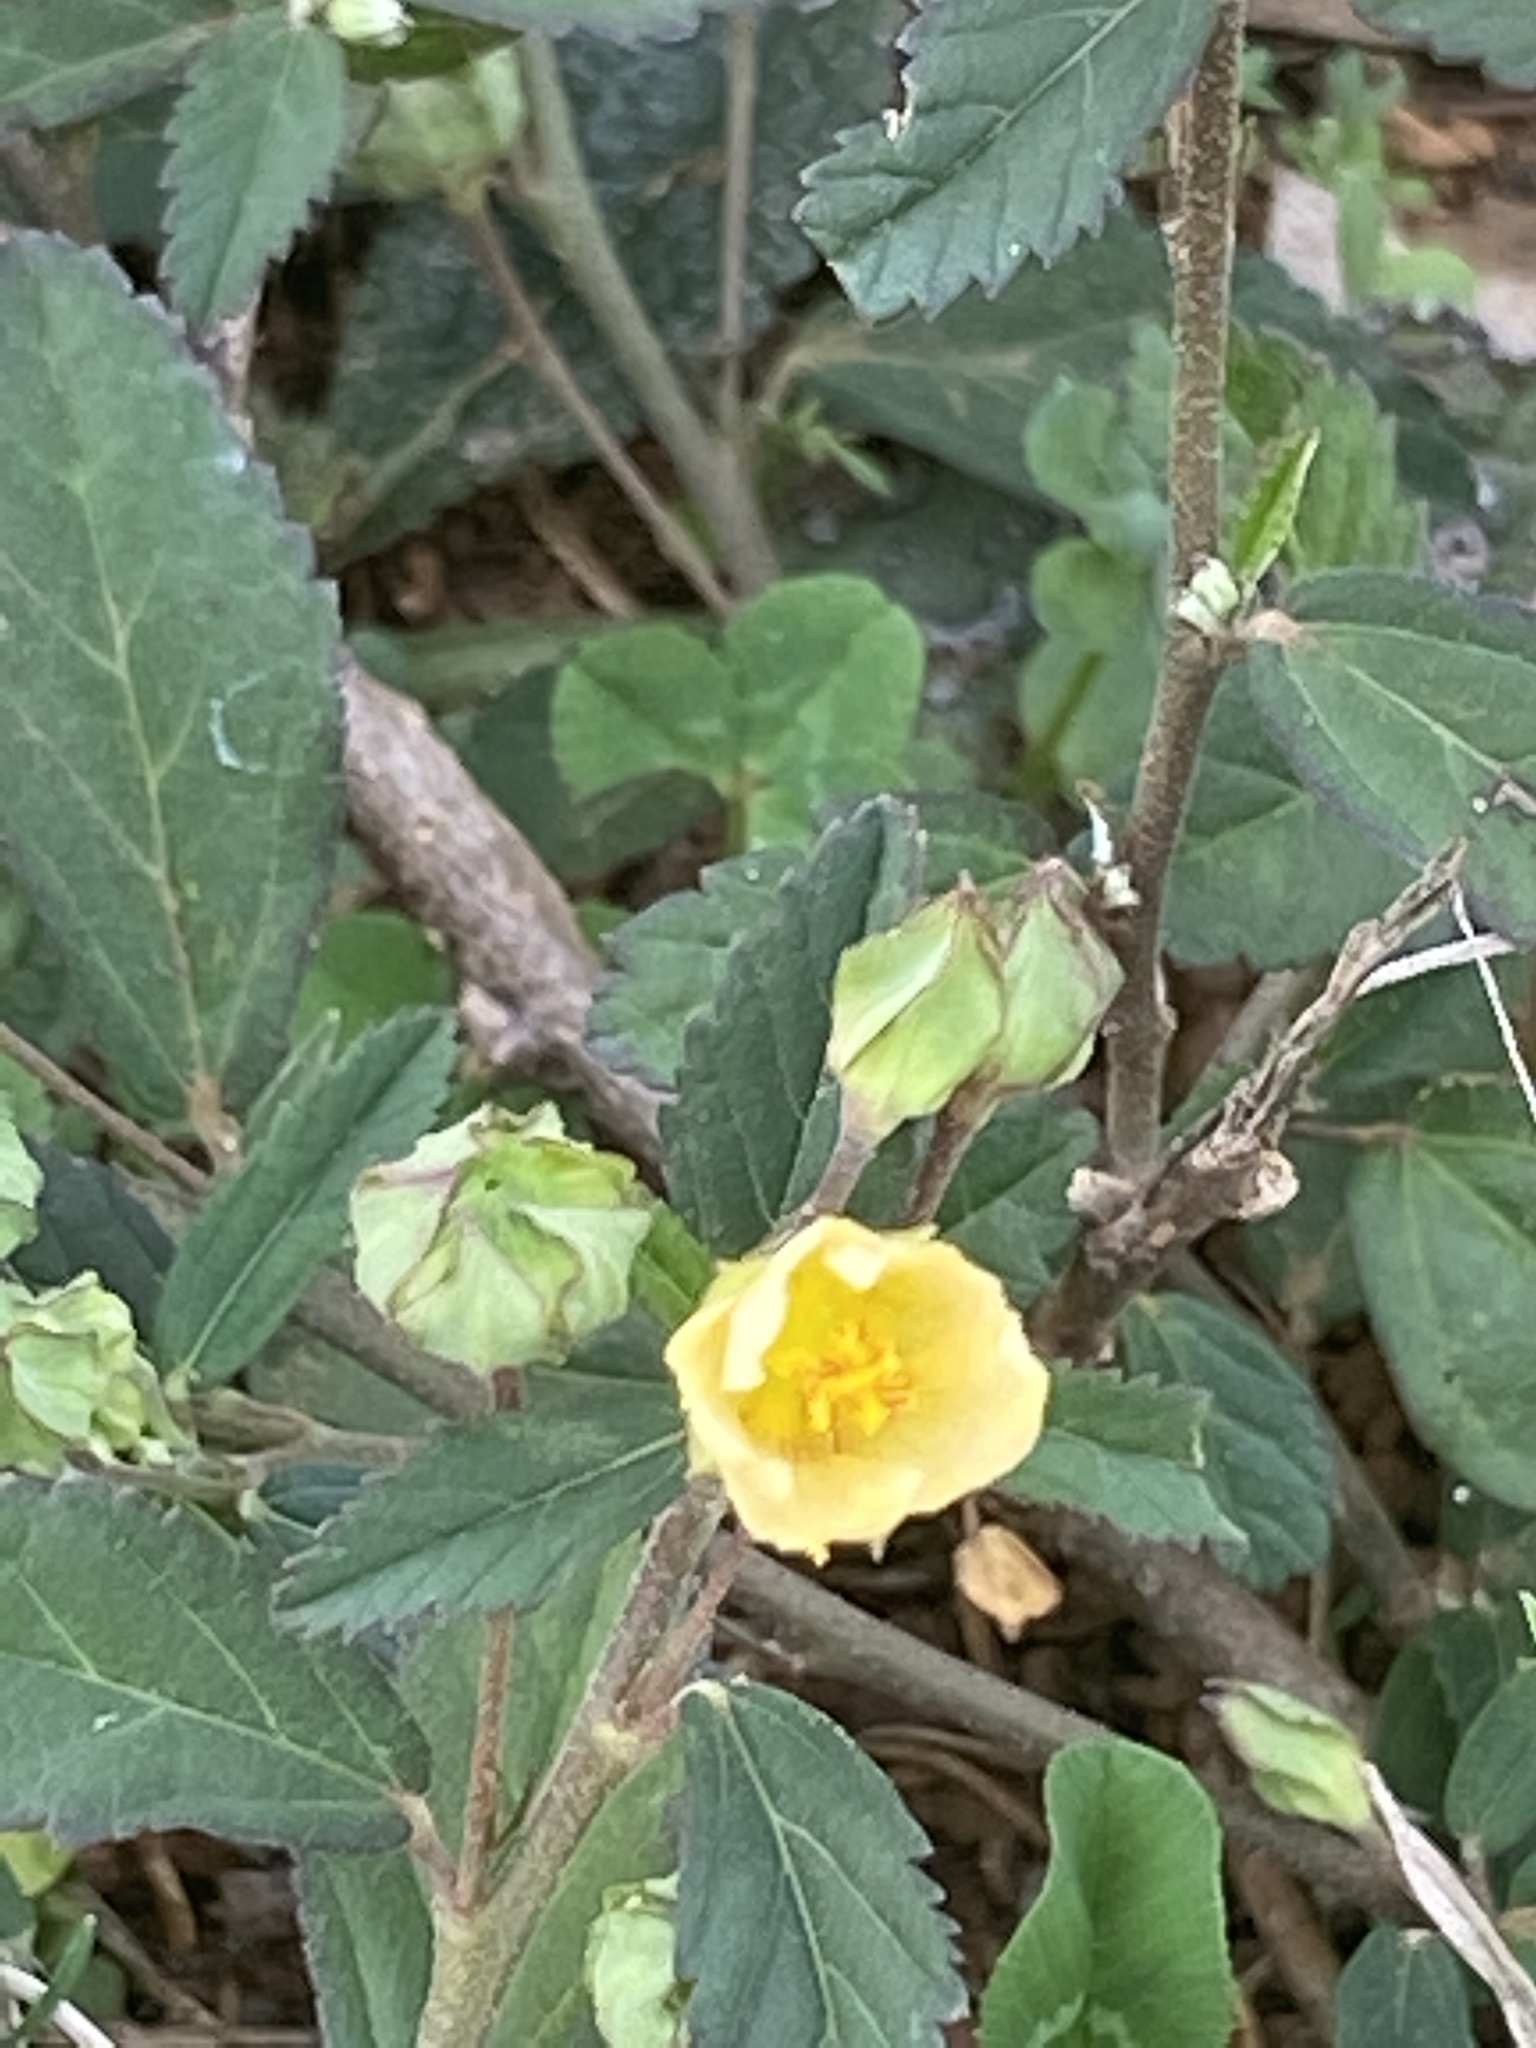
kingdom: Plantae
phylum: Tracheophyta
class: Magnoliopsida
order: Malvales
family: Malvaceae
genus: Sida
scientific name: Sida rhombifolia
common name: Queensland-hemp
